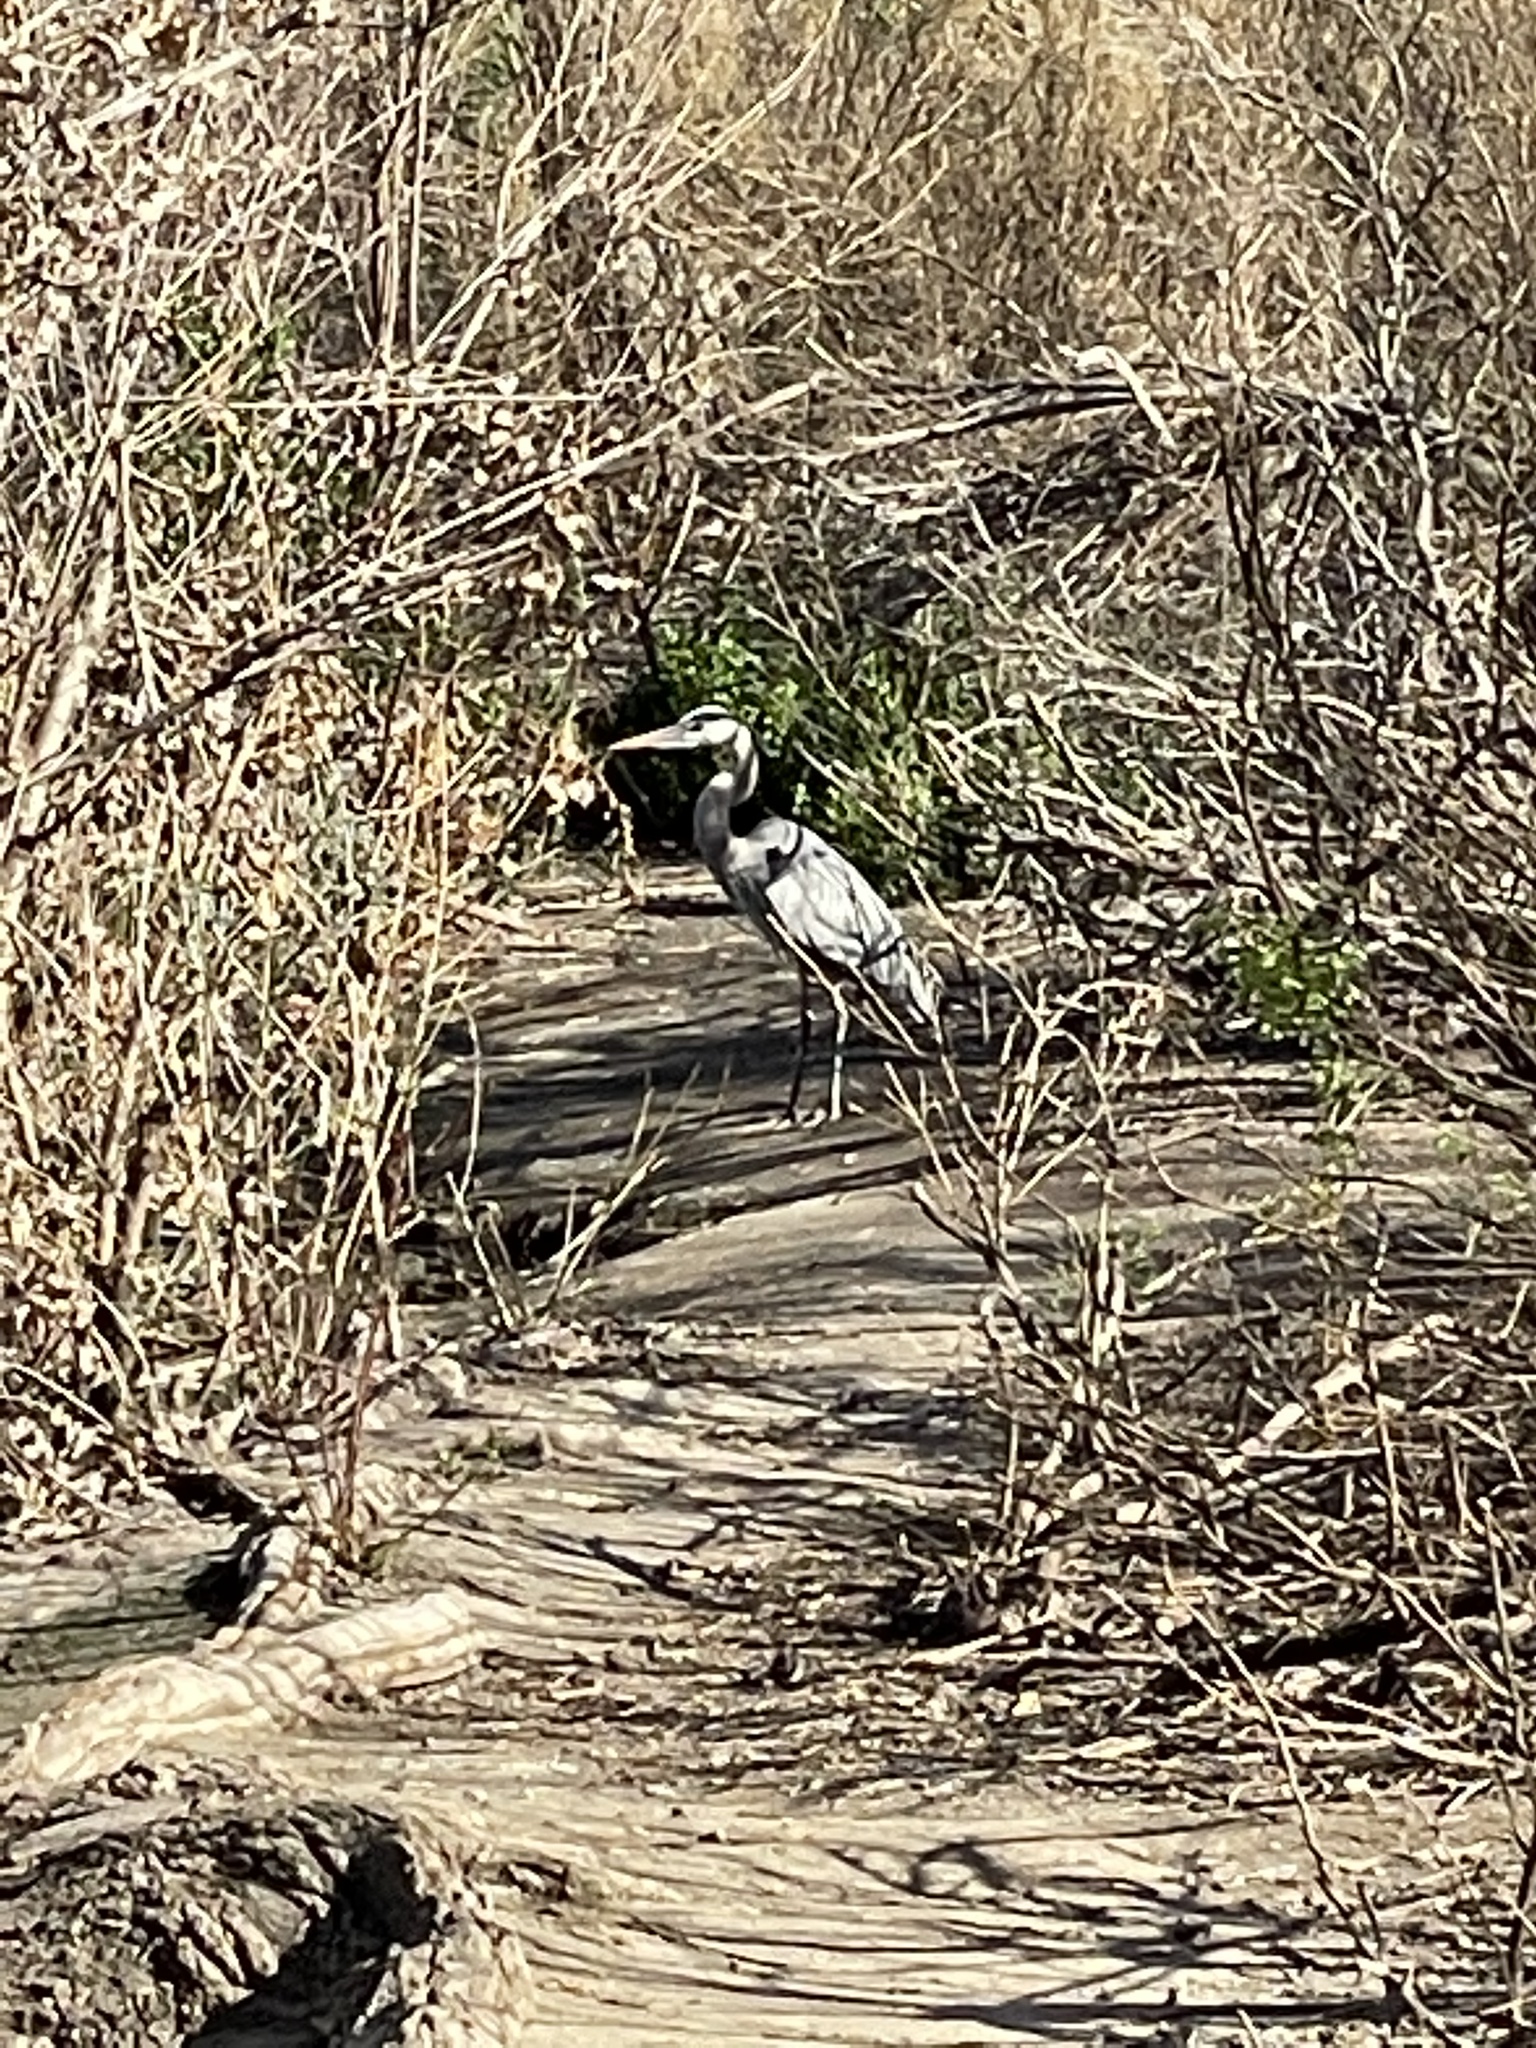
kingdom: Animalia
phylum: Chordata
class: Aves
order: Pelecaniformes
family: Ardeidae
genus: Ardea
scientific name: Ardea herodias
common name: Great blue heron
